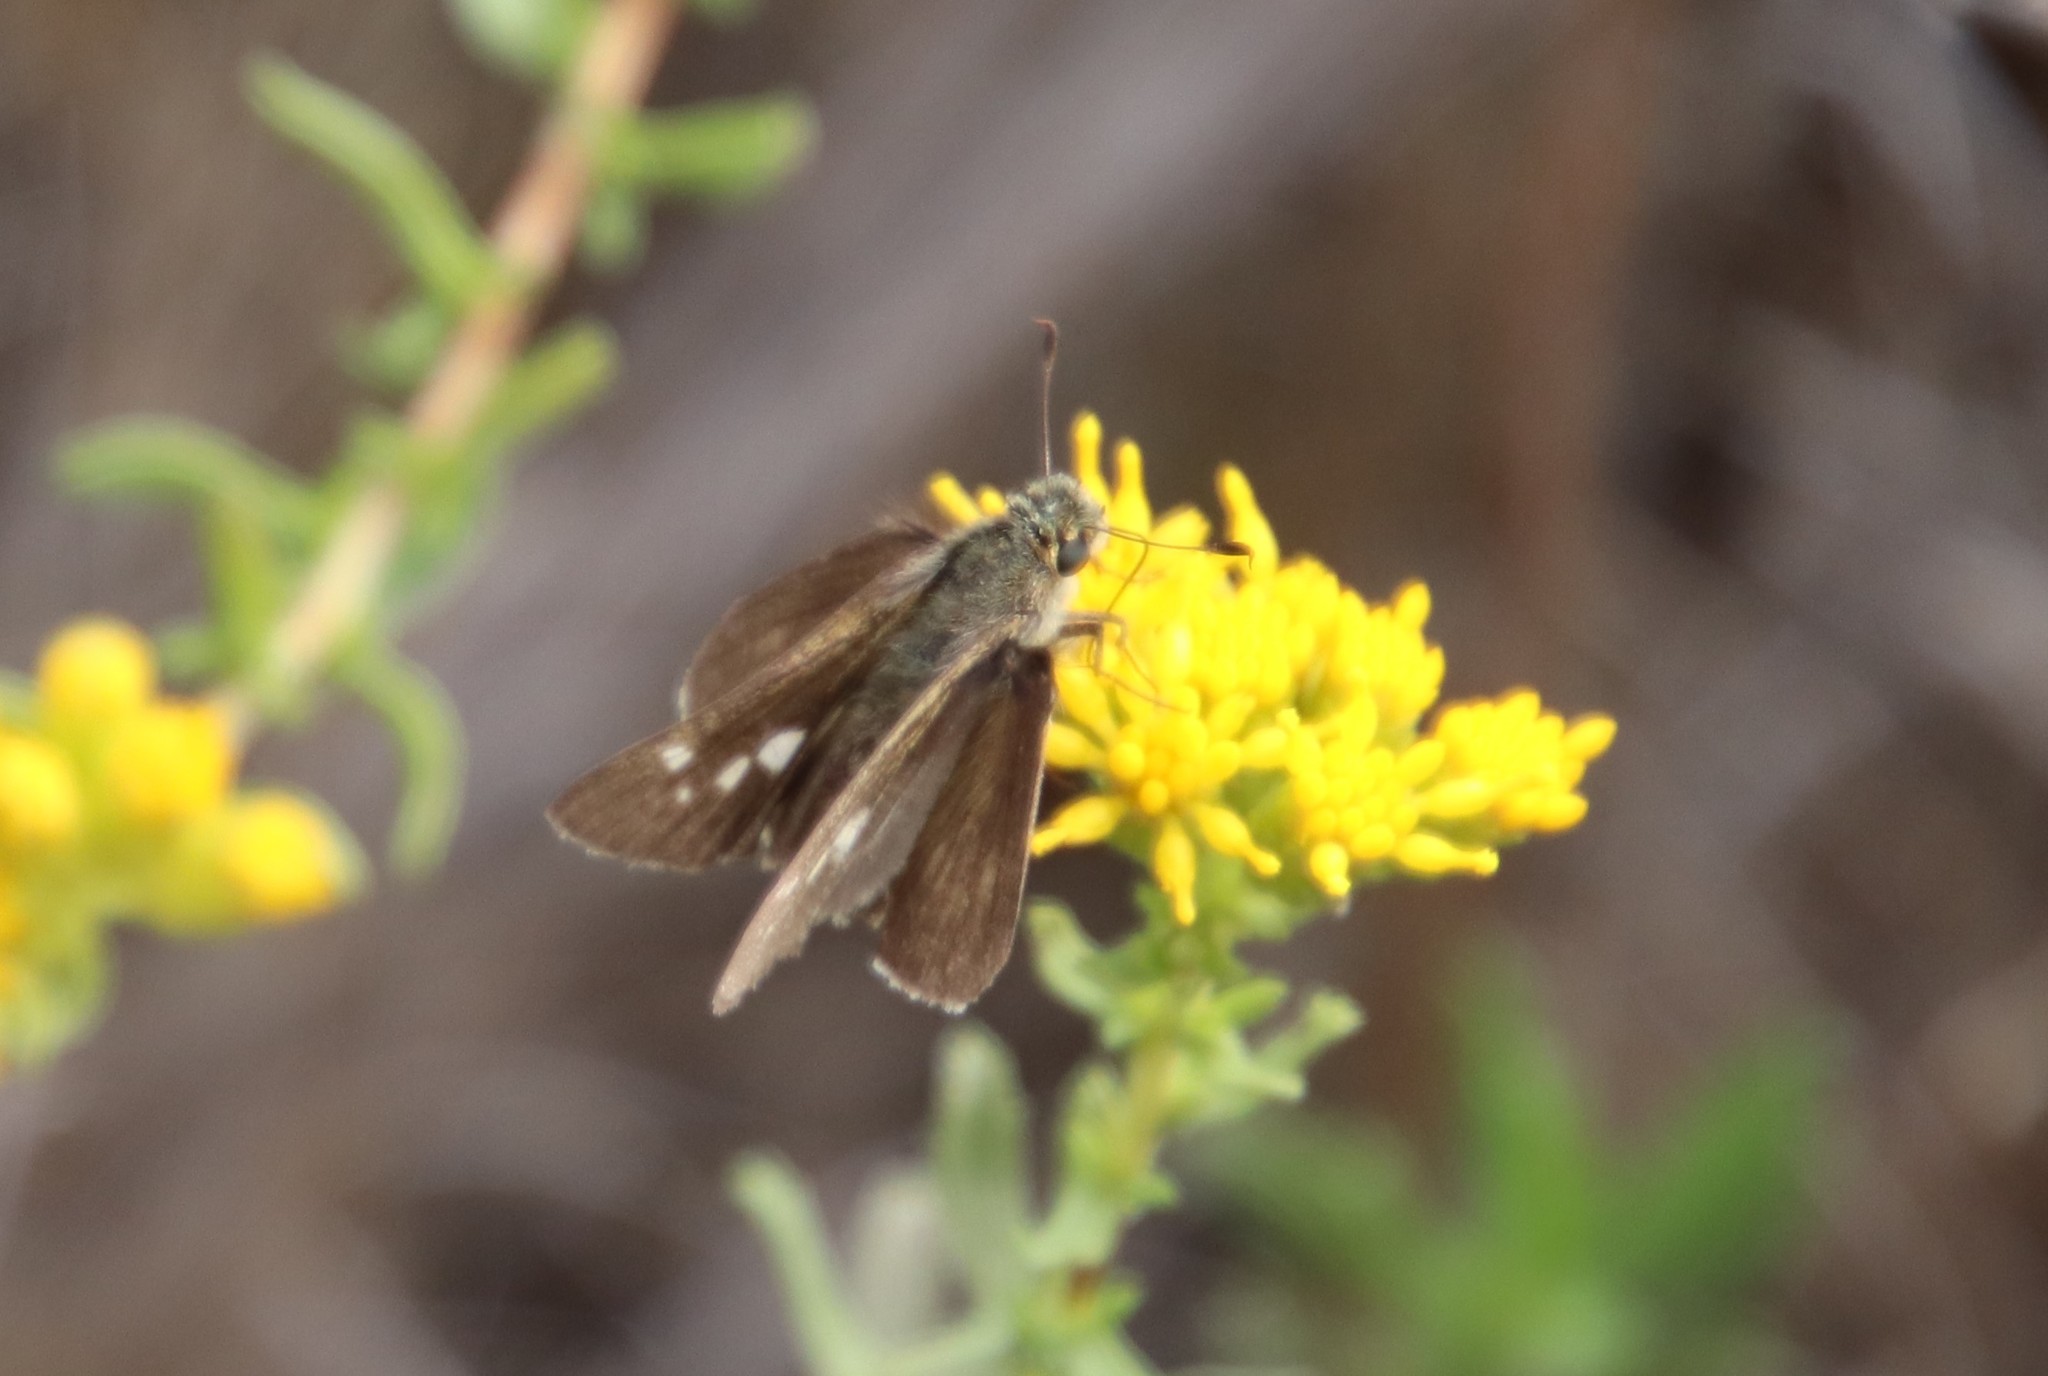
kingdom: Animalia
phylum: Arthropoda
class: Insecta
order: Lepidoptera
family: Hesperiidae
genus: Panoquina
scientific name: Panoquina errans
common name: Wandering skipper
